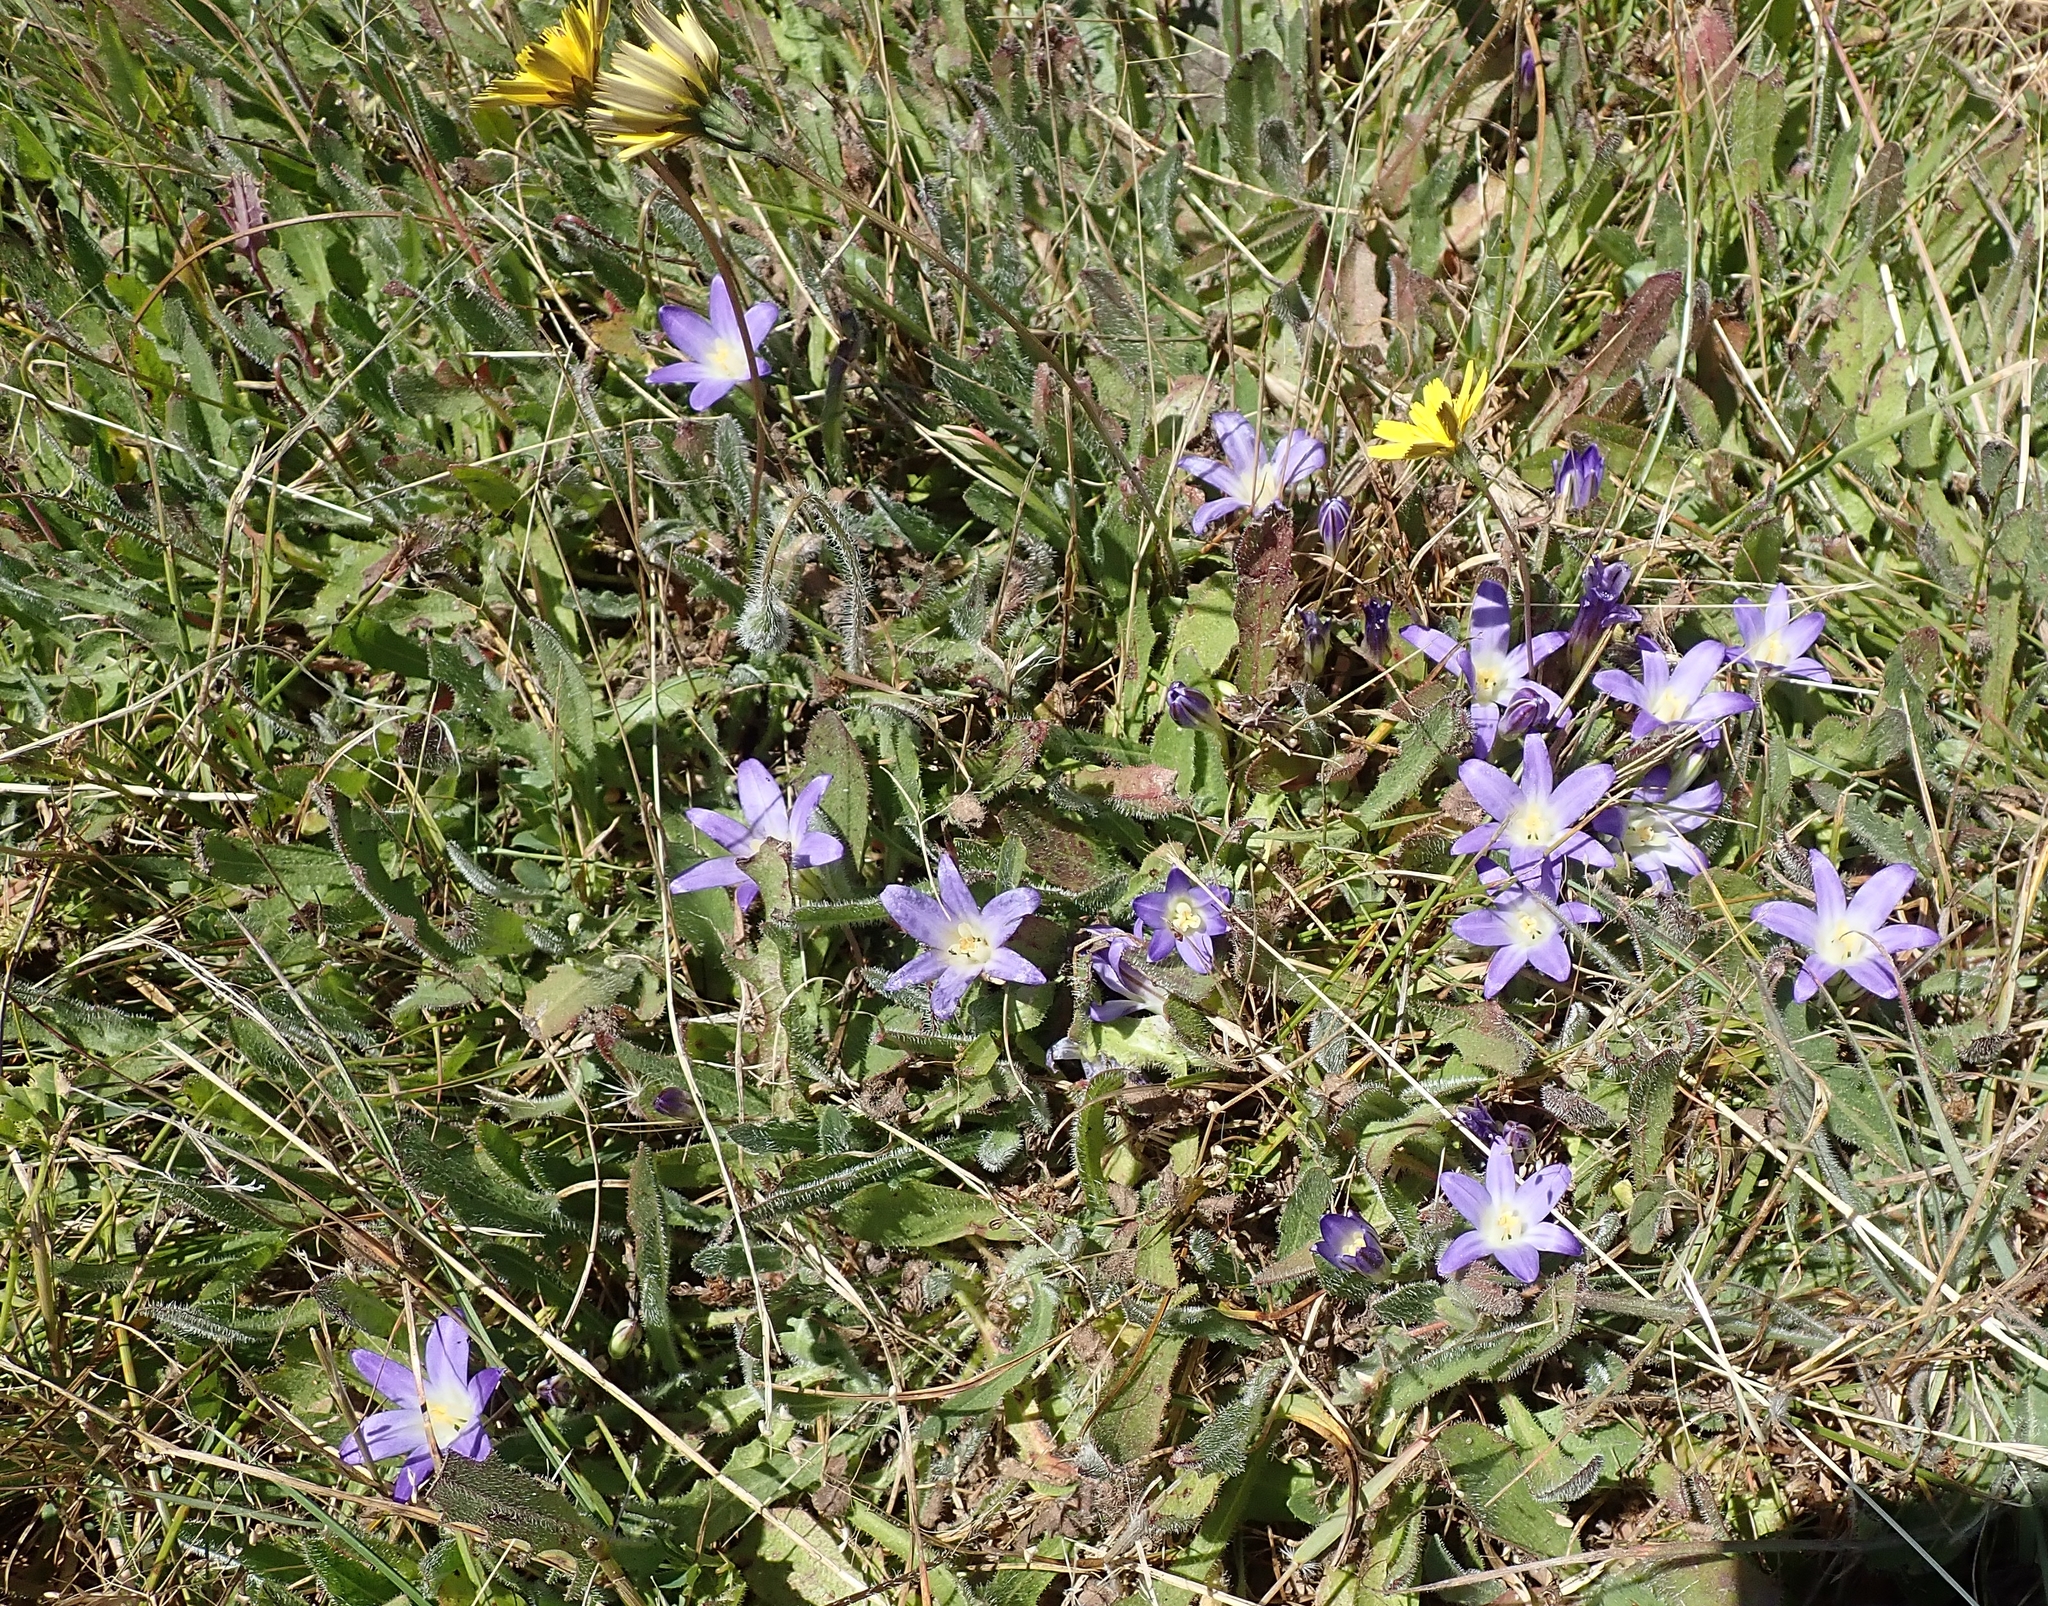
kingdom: Plantae
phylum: Tracheophyta
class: Liliopsida
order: Asparagales
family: Asparagaceae
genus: Brodiaea
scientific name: Brodiaea terrestris
